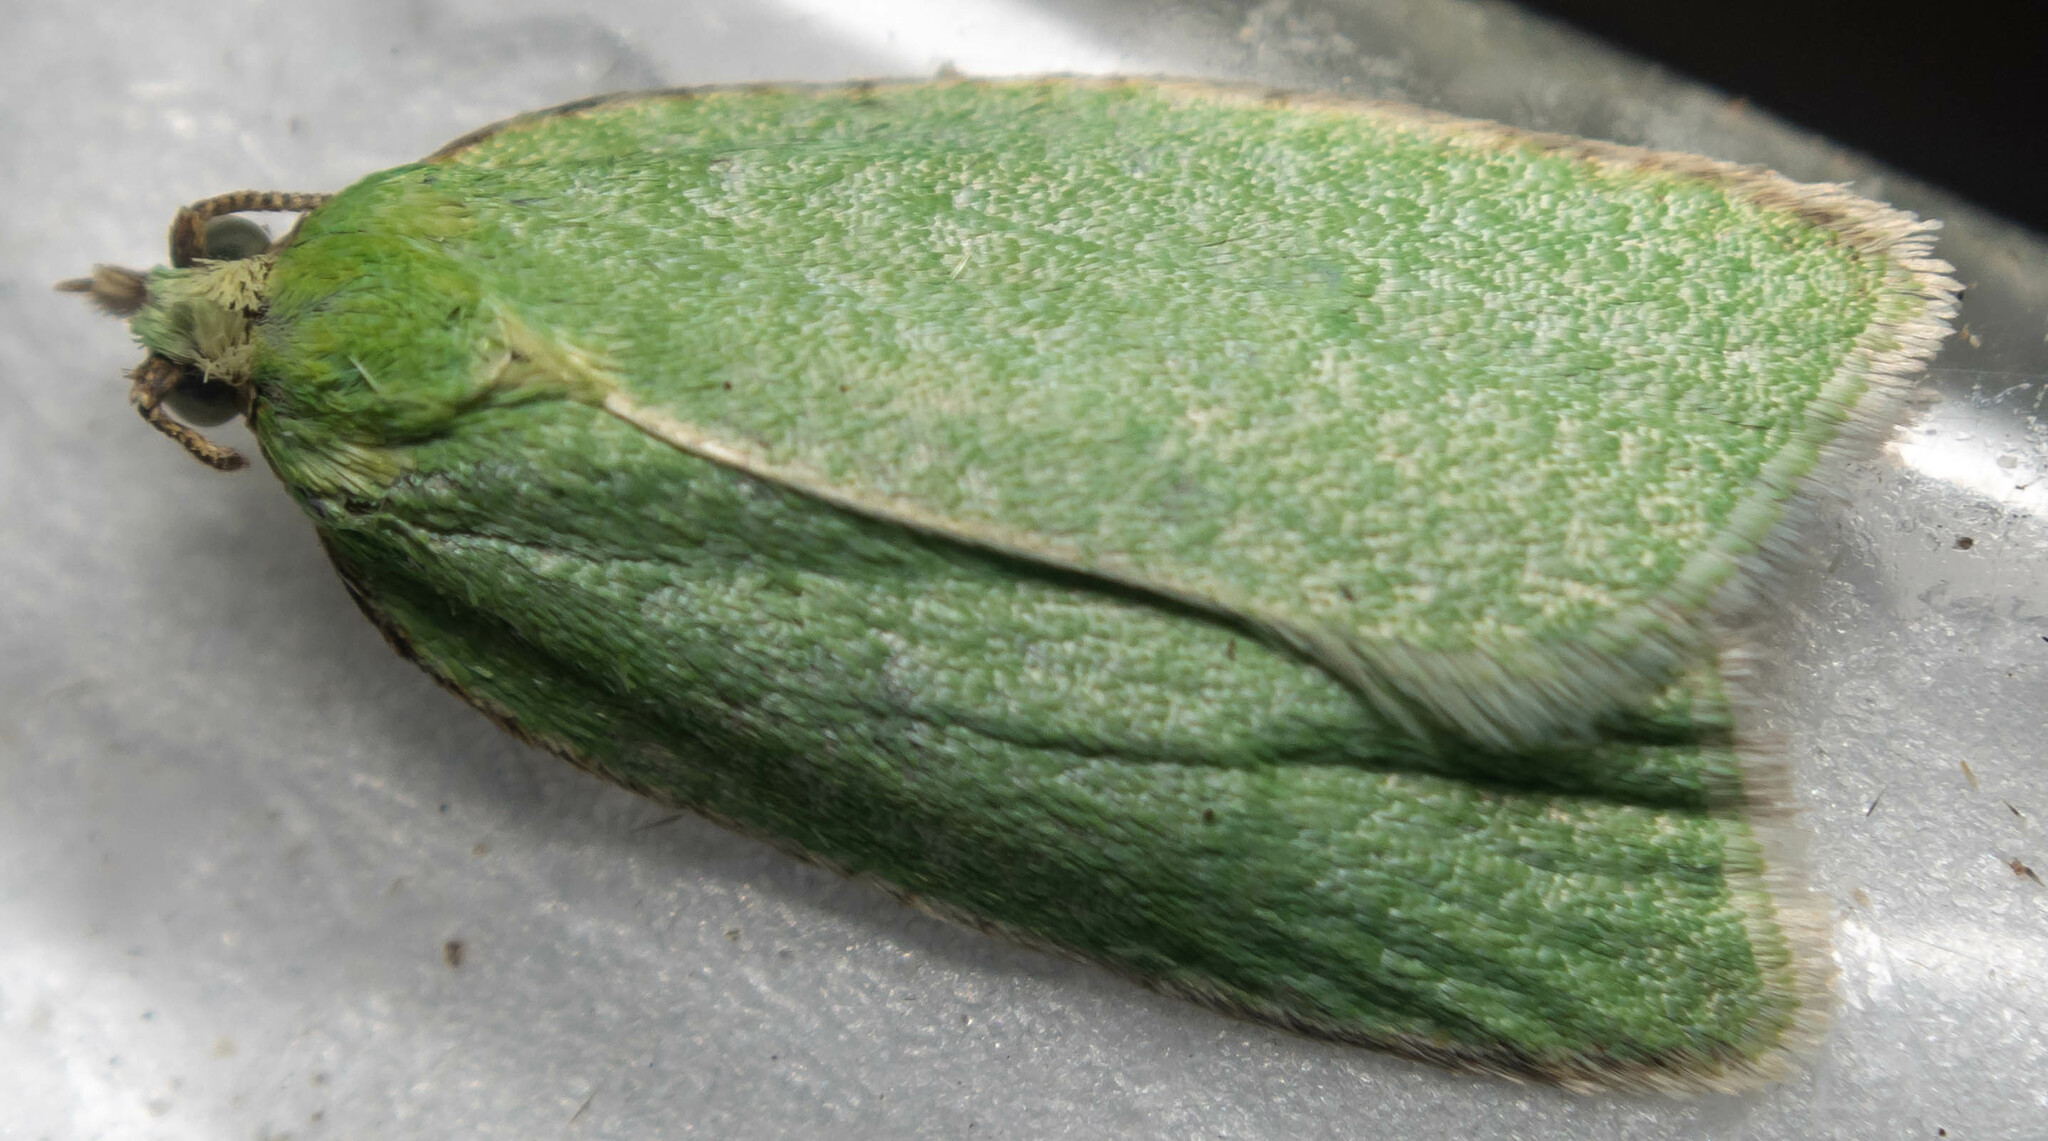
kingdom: Animalia
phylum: Arthropoda
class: Insecta
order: Lepidoptera
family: Tortricidae
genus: Tortrix
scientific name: Tortrix viridana
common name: Green oak tortrix
